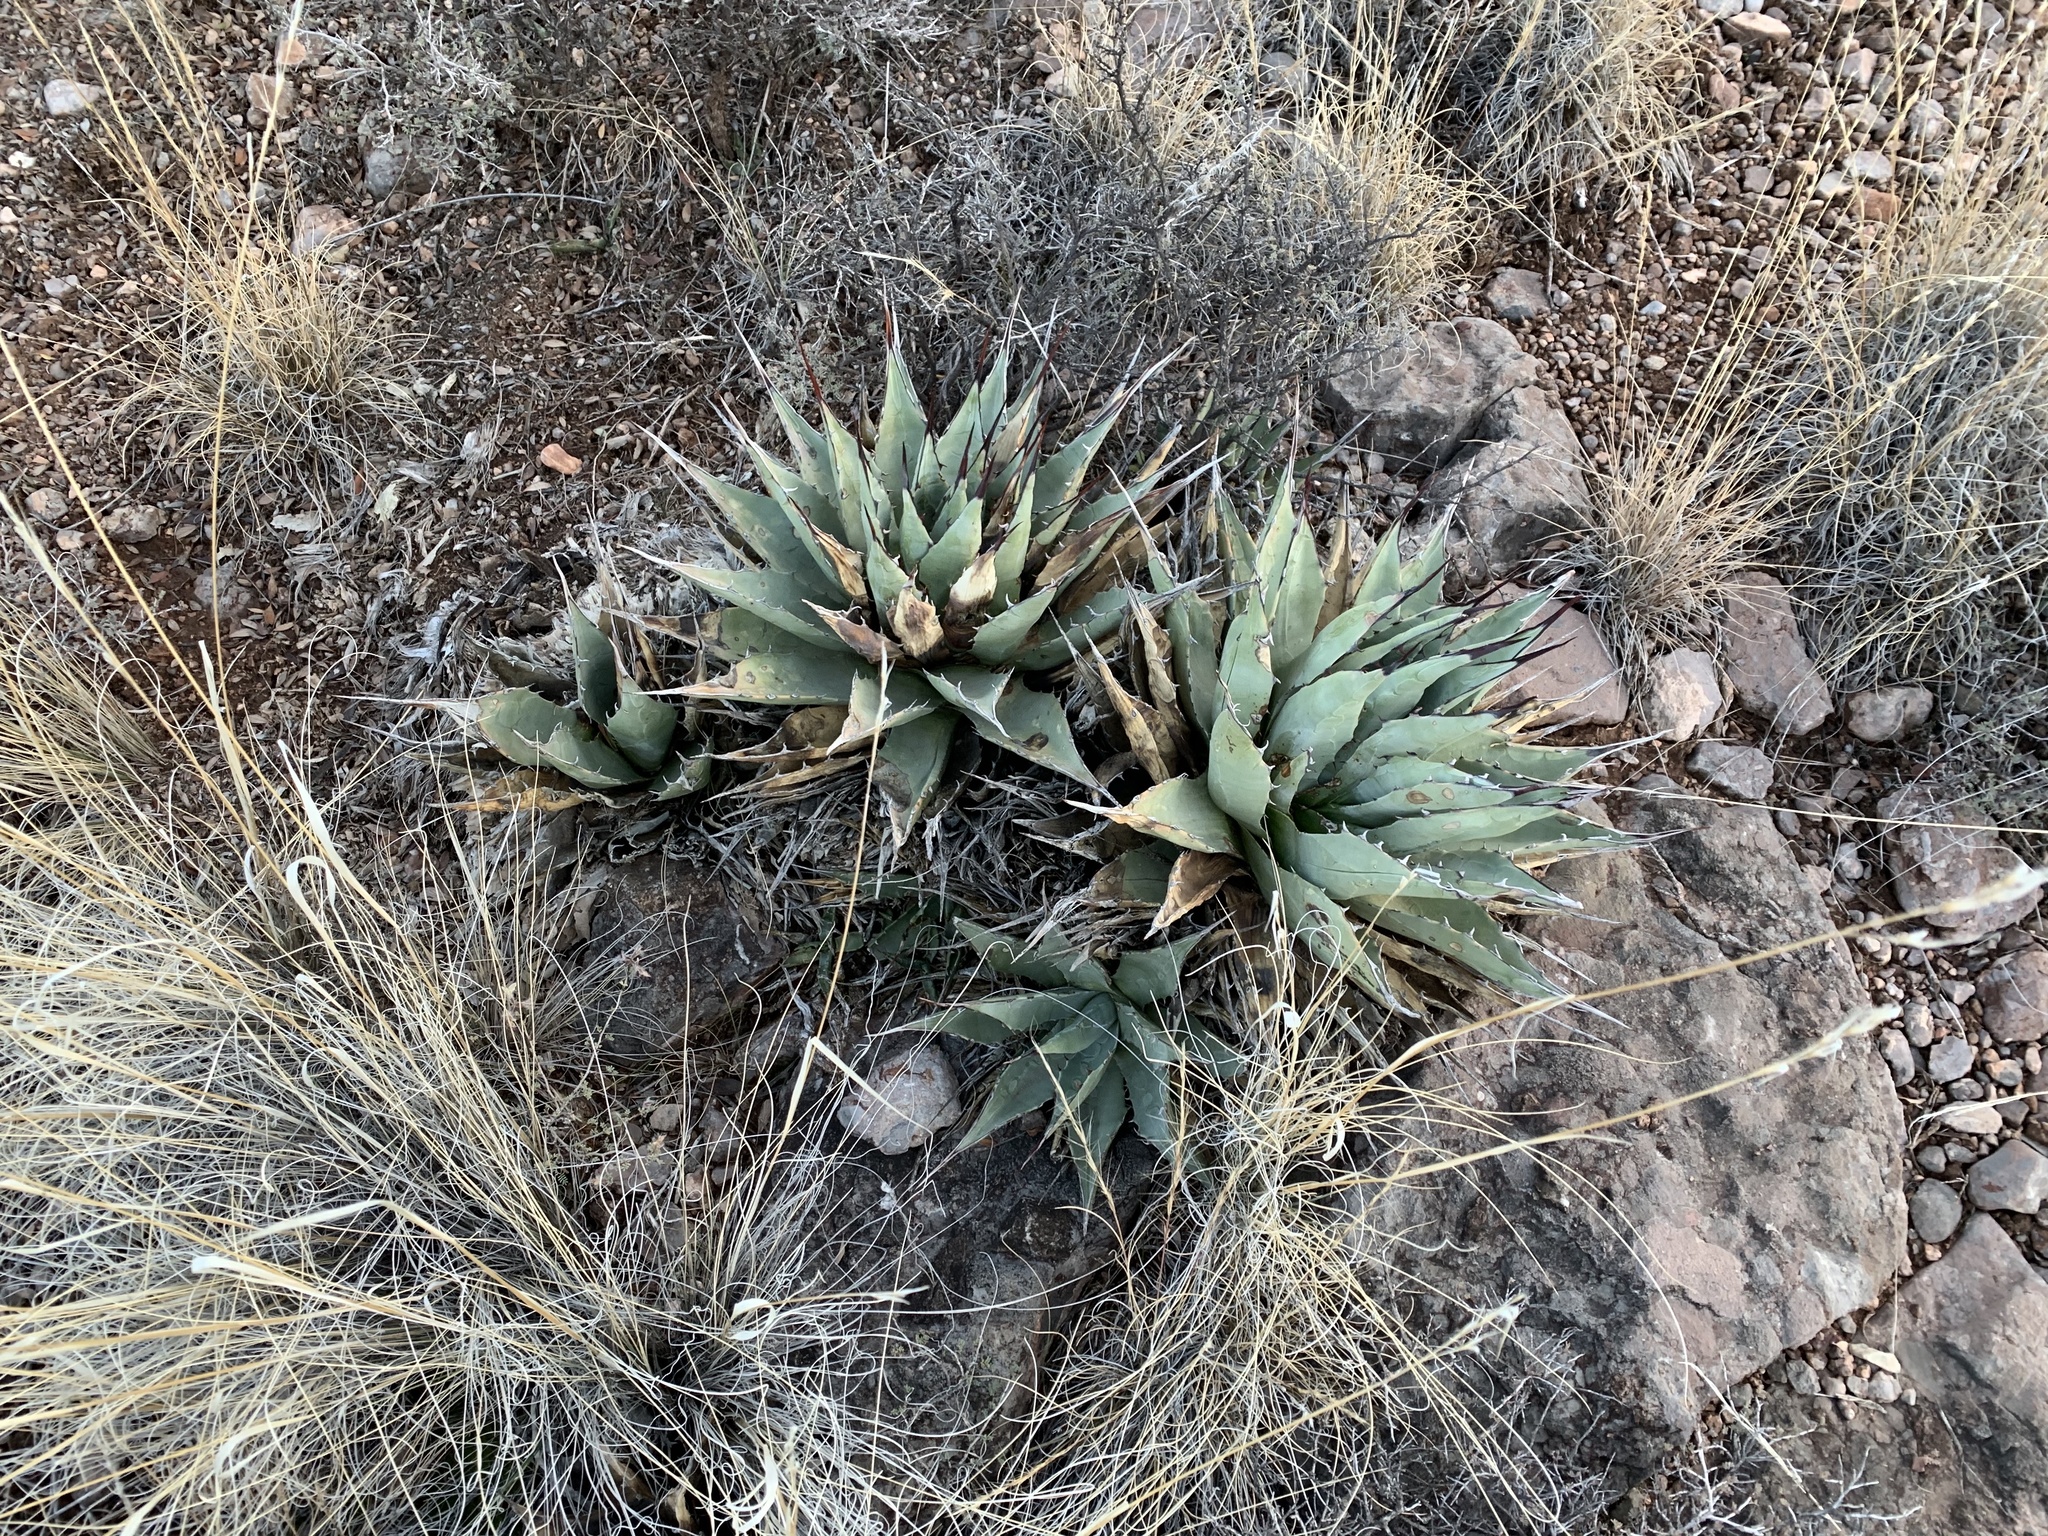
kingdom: Plantae
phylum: Tracheophyta
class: Liliopsida
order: Asparagales
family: Asparagaceae
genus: Agave
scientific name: Agave parryi
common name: Parry's agave
